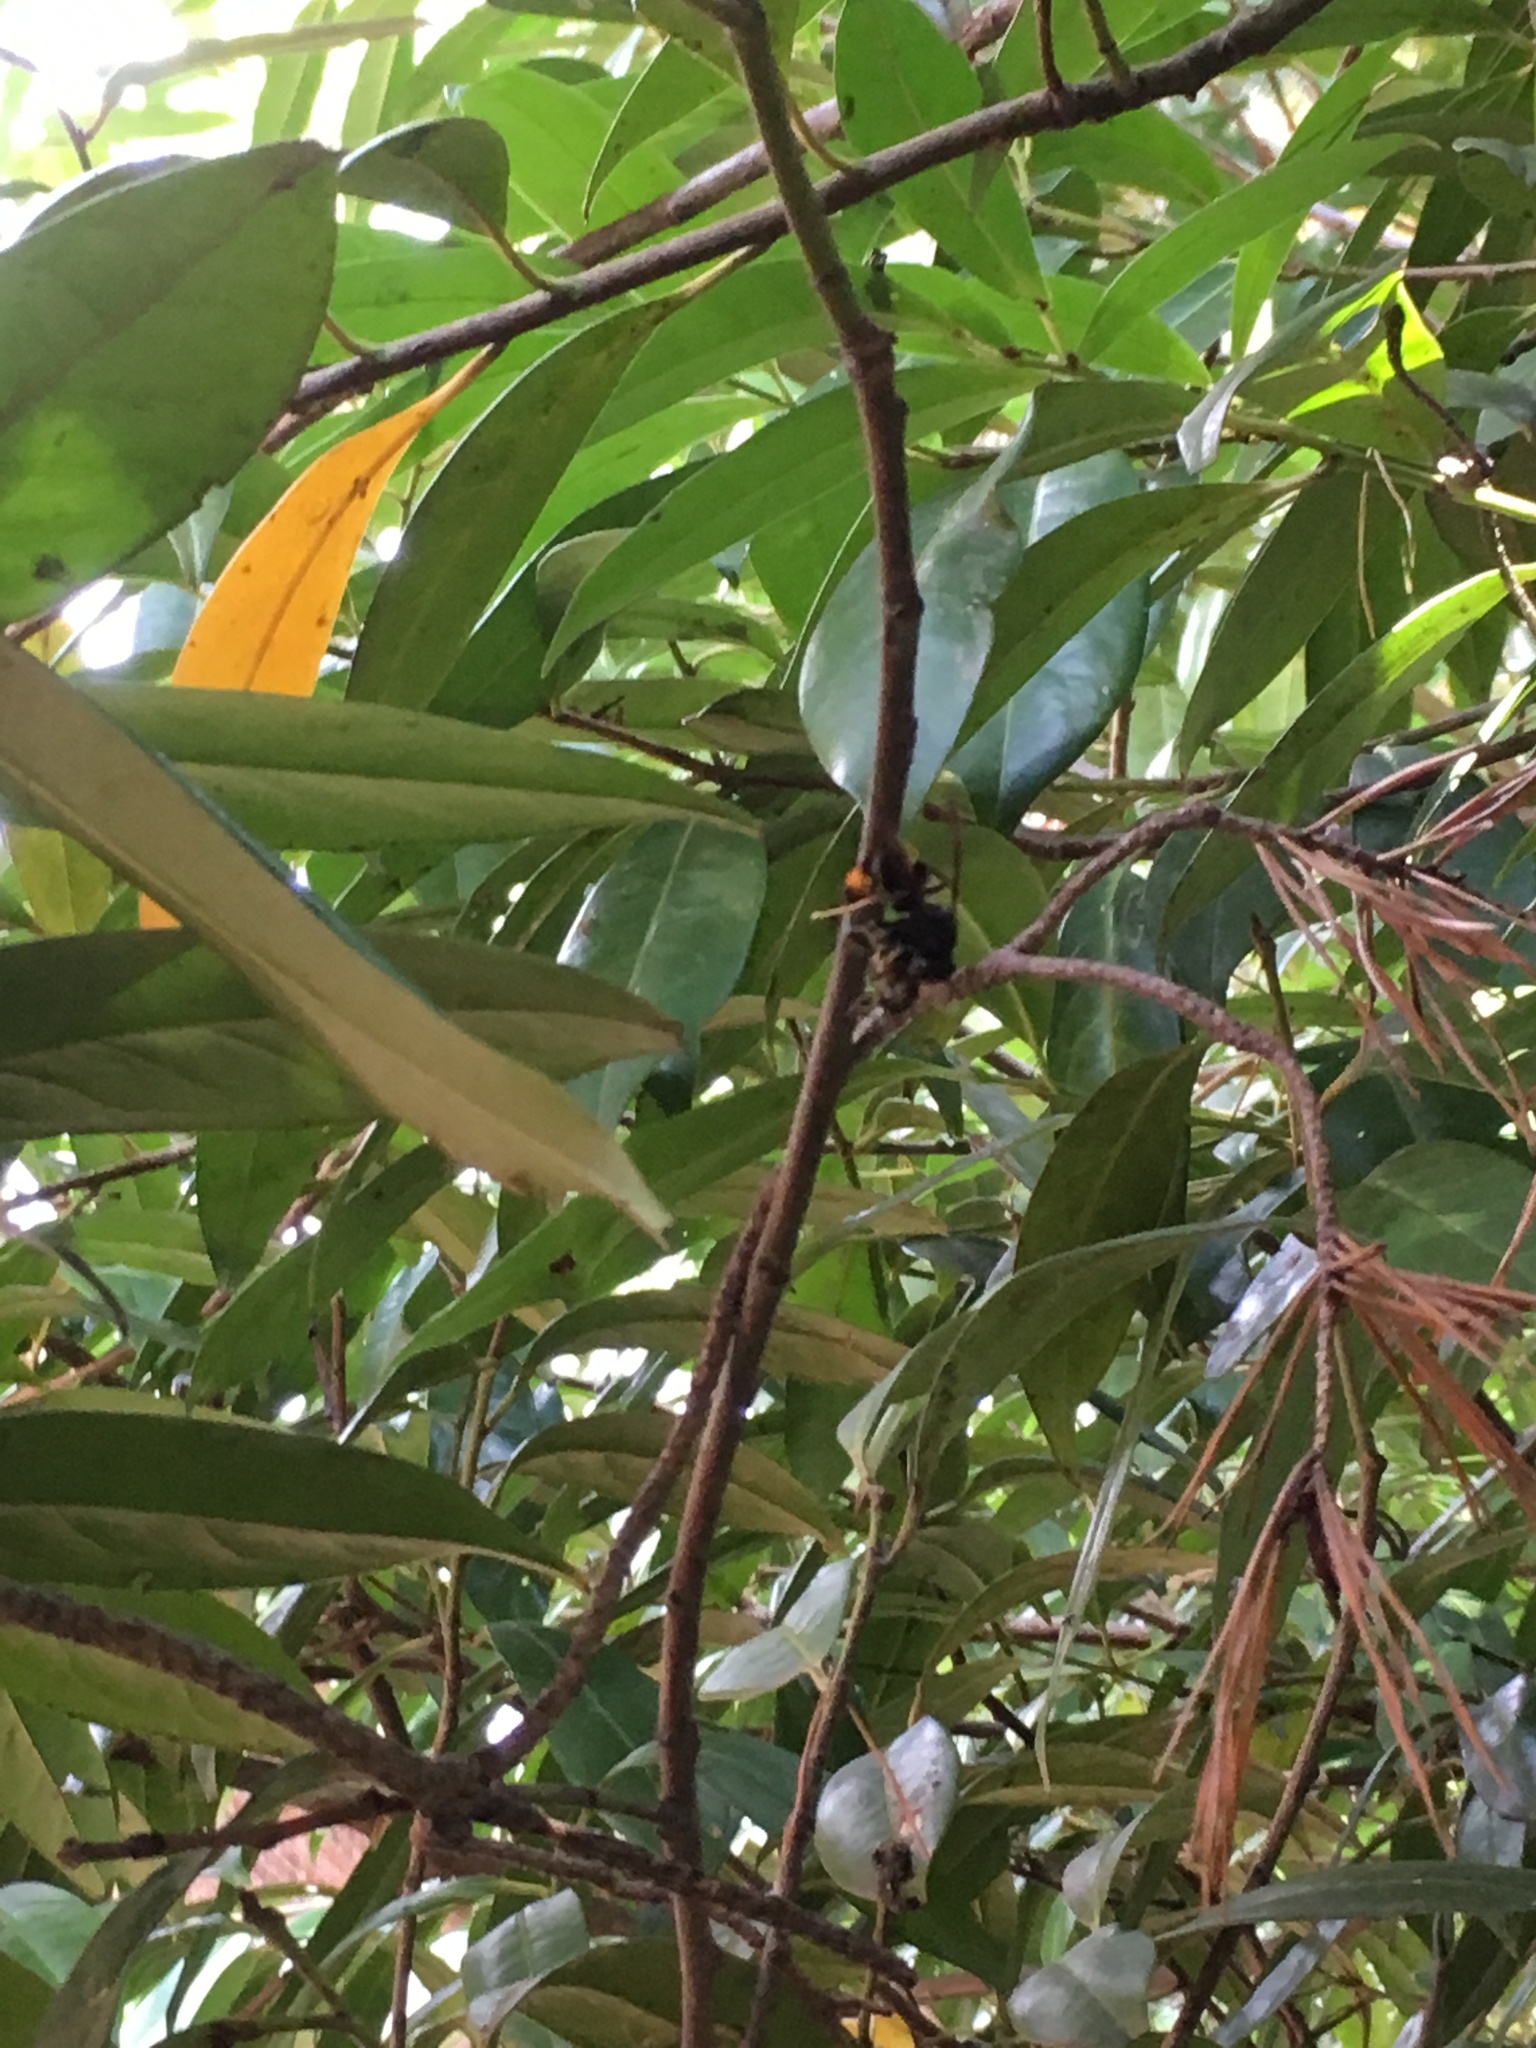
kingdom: Animalia
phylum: Arthropoda
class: Insecta
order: Hymenoptera
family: Vespidae
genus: Vespa
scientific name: Vespa velutina
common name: Asian hornet
